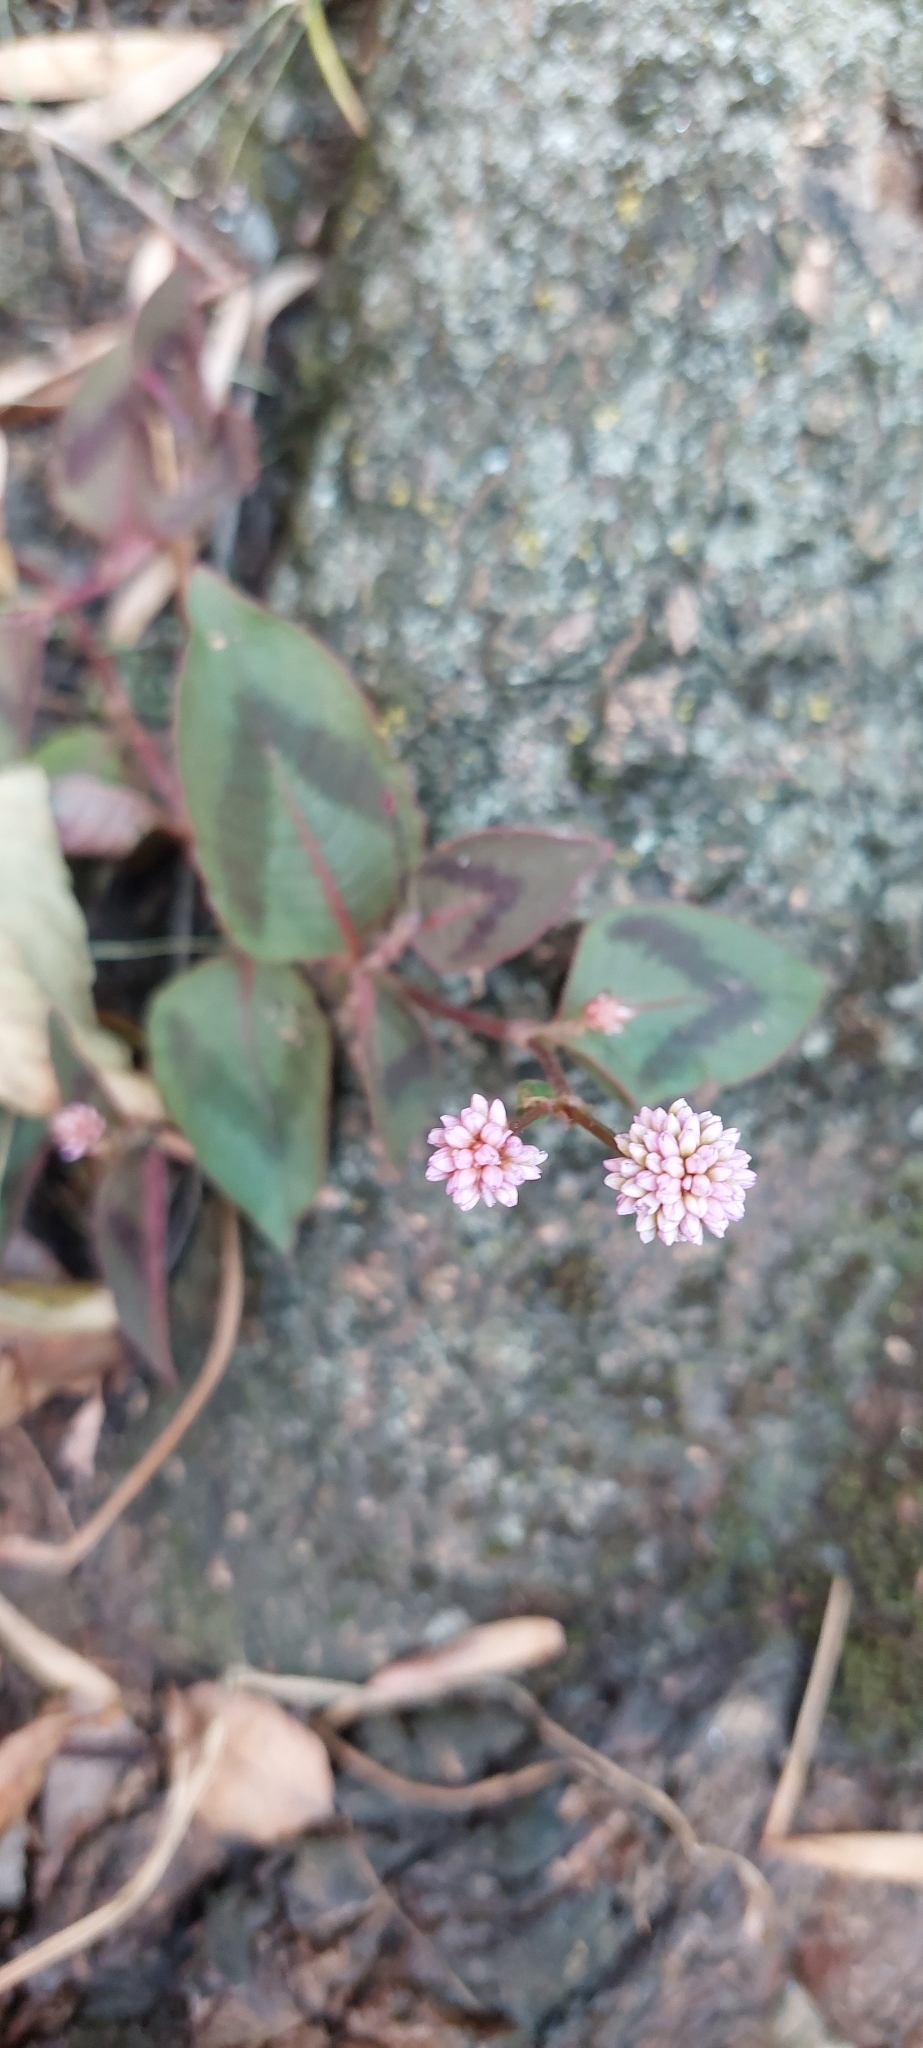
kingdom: Plantae
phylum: Tracheophyta
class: Magnoliopsida
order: Caryophyllales
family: Polygonaceae
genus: Persicaria
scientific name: Persicaria capitata
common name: Pinkhead smartweed
